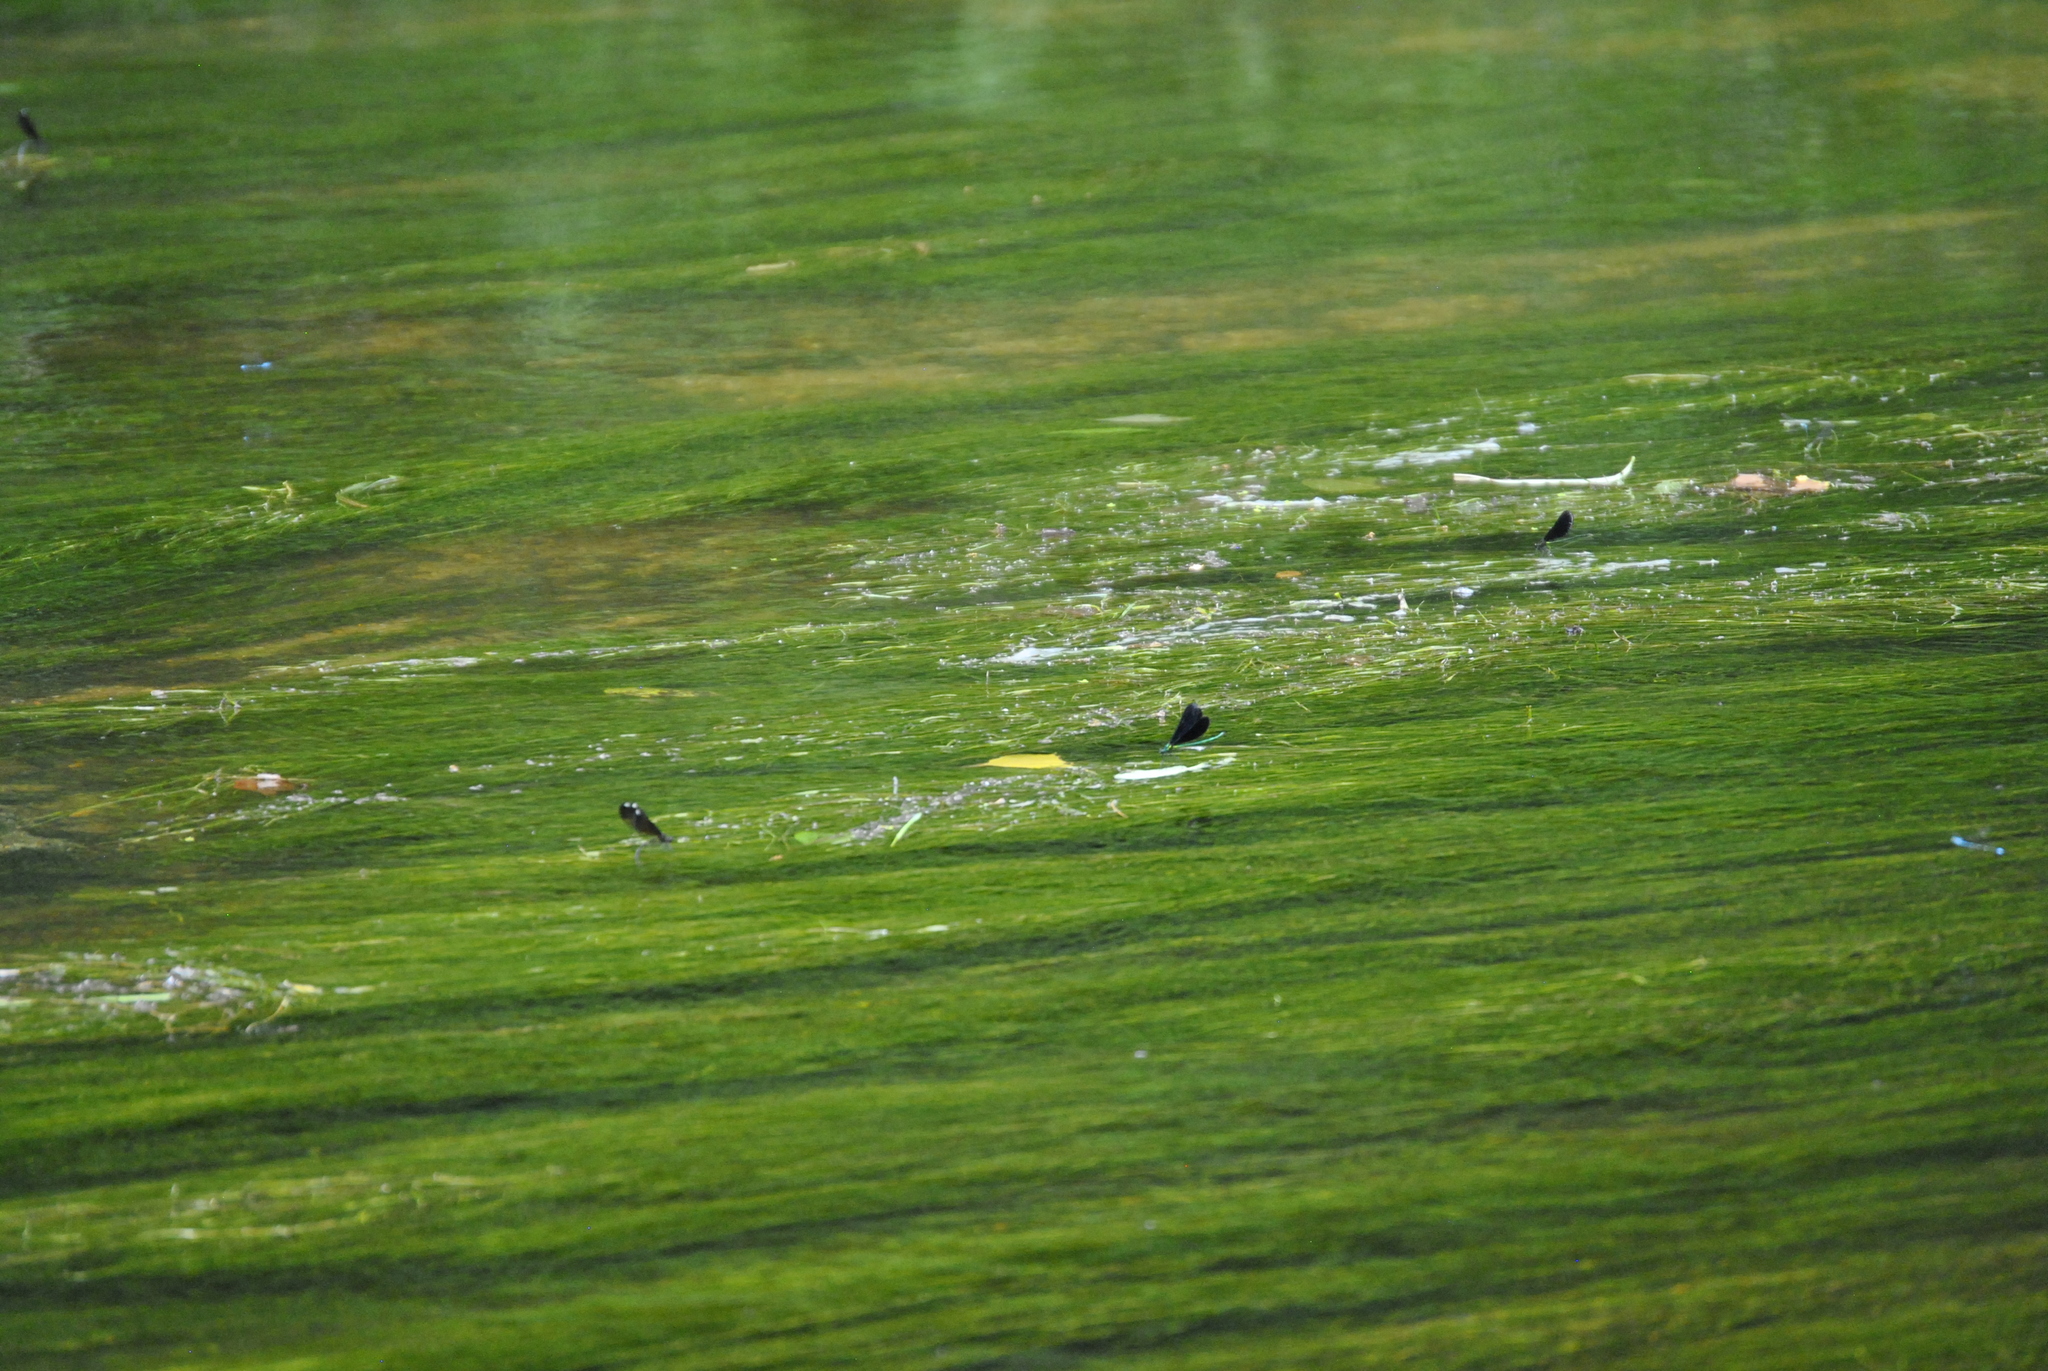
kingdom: Animalia
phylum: Arthropoda
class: Insecta
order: Odonata
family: Calopterygidae
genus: Calopteryx
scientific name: Calopteryx maculata
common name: Ebony jewelwing
